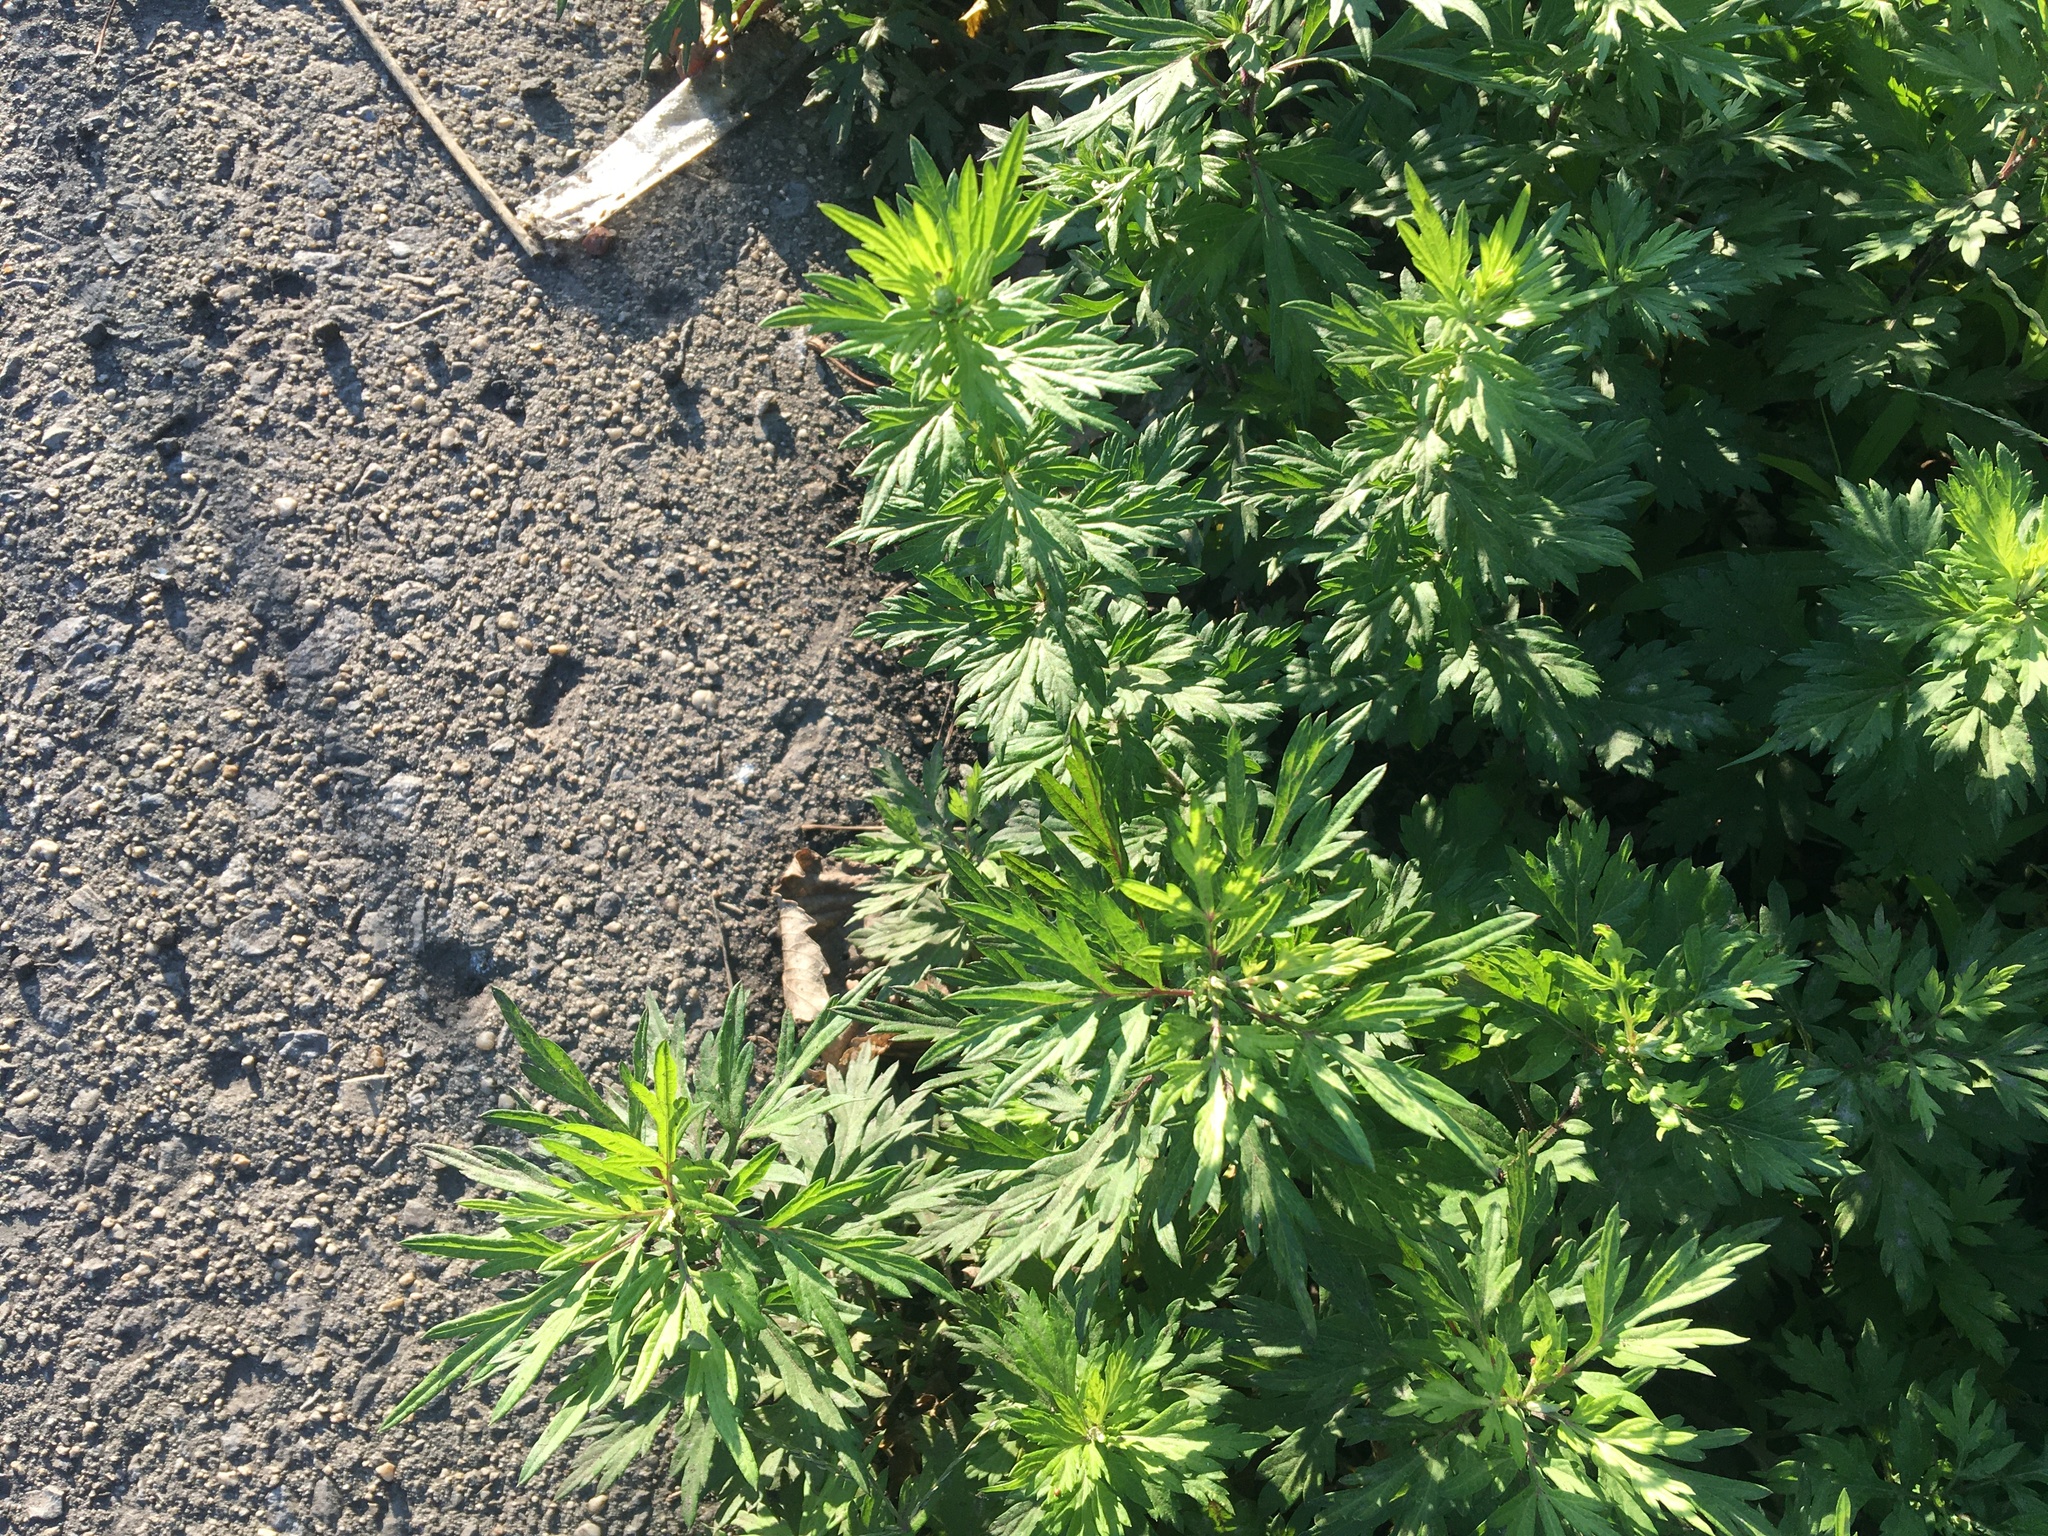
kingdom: Plantae
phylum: Tracheophyta
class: Magnoliopsida
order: Asterales
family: Asteraceae
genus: Artemisia
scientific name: Artemisia vulgaris
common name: Mugwort
